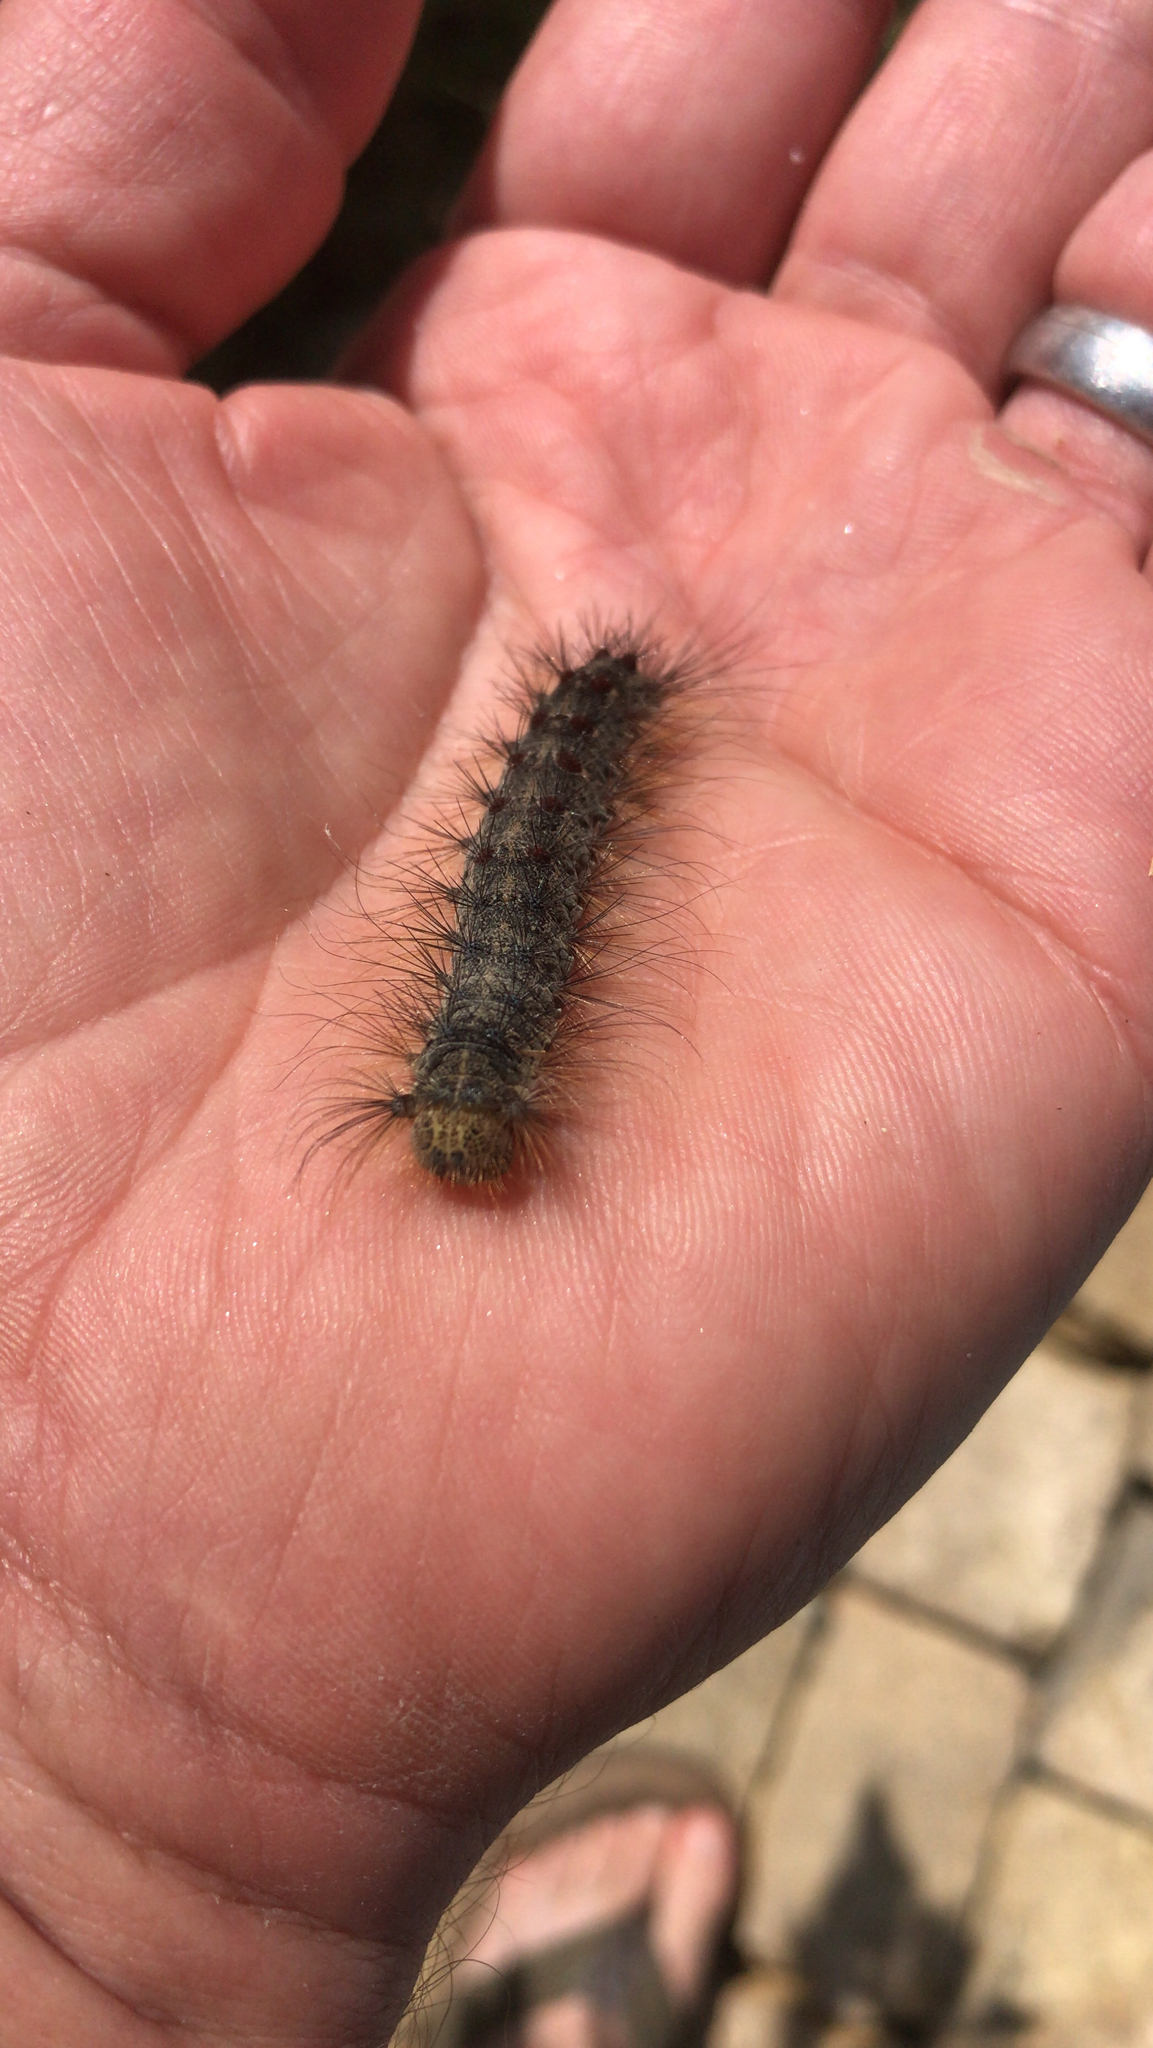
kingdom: Animalia
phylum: Arthropoda
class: Insecta
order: Lepidoptera
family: Erebidae
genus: Lymantria
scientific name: Lymantria dispar
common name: Gypsy moth
